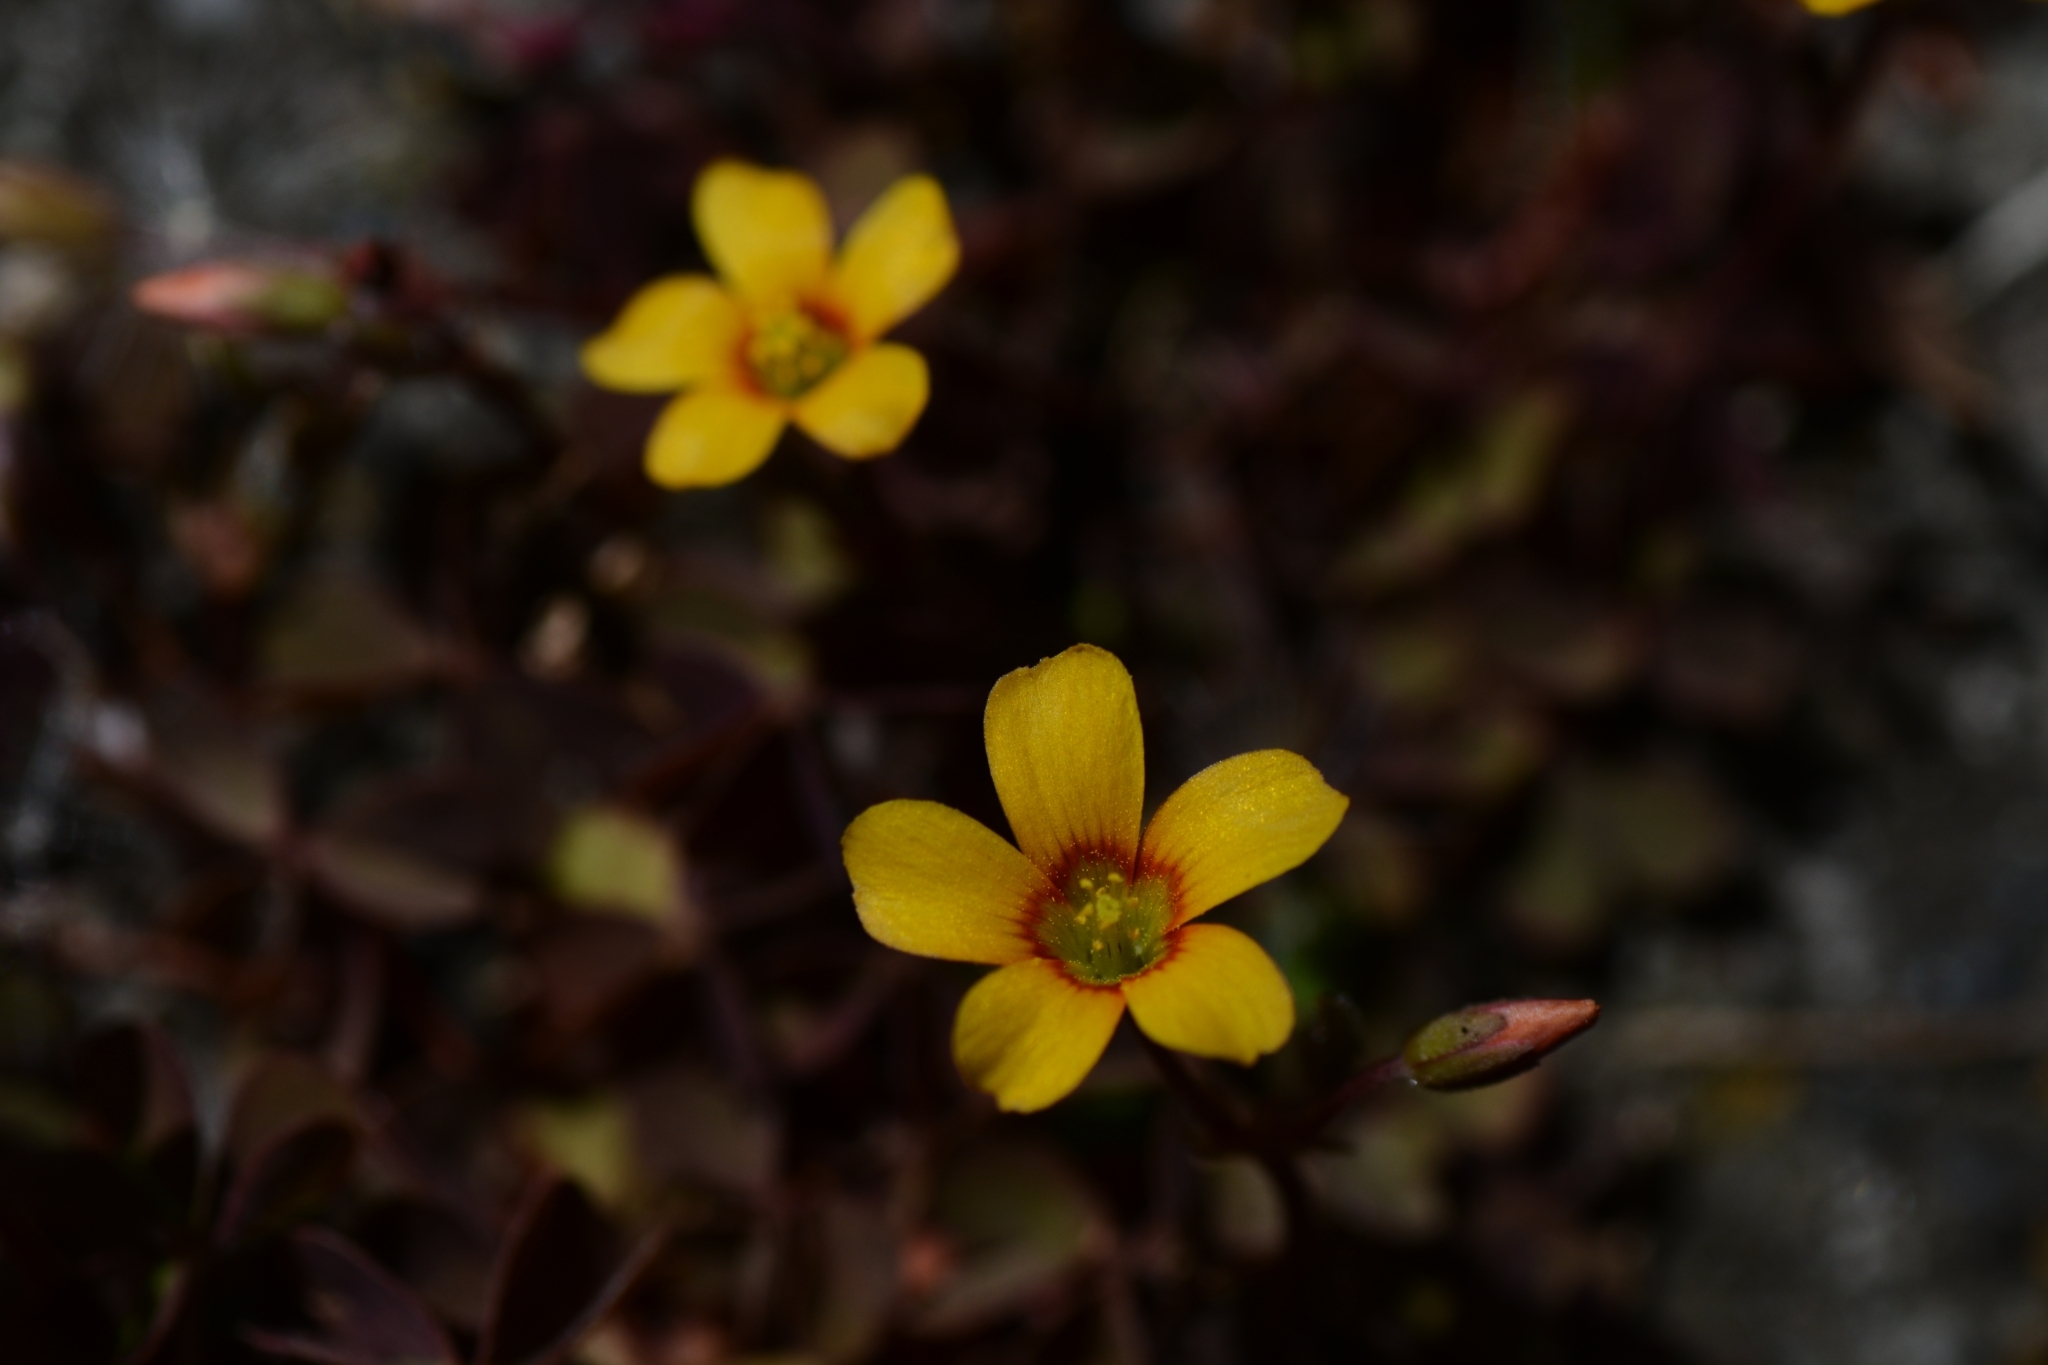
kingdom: Plantae
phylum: Tracheophyta
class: Magnoliopsida
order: Oxalidales
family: Oxalidaceae
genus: Oxalis
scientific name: Oxalis corniculata
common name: Procumbent yellow-sorrel
